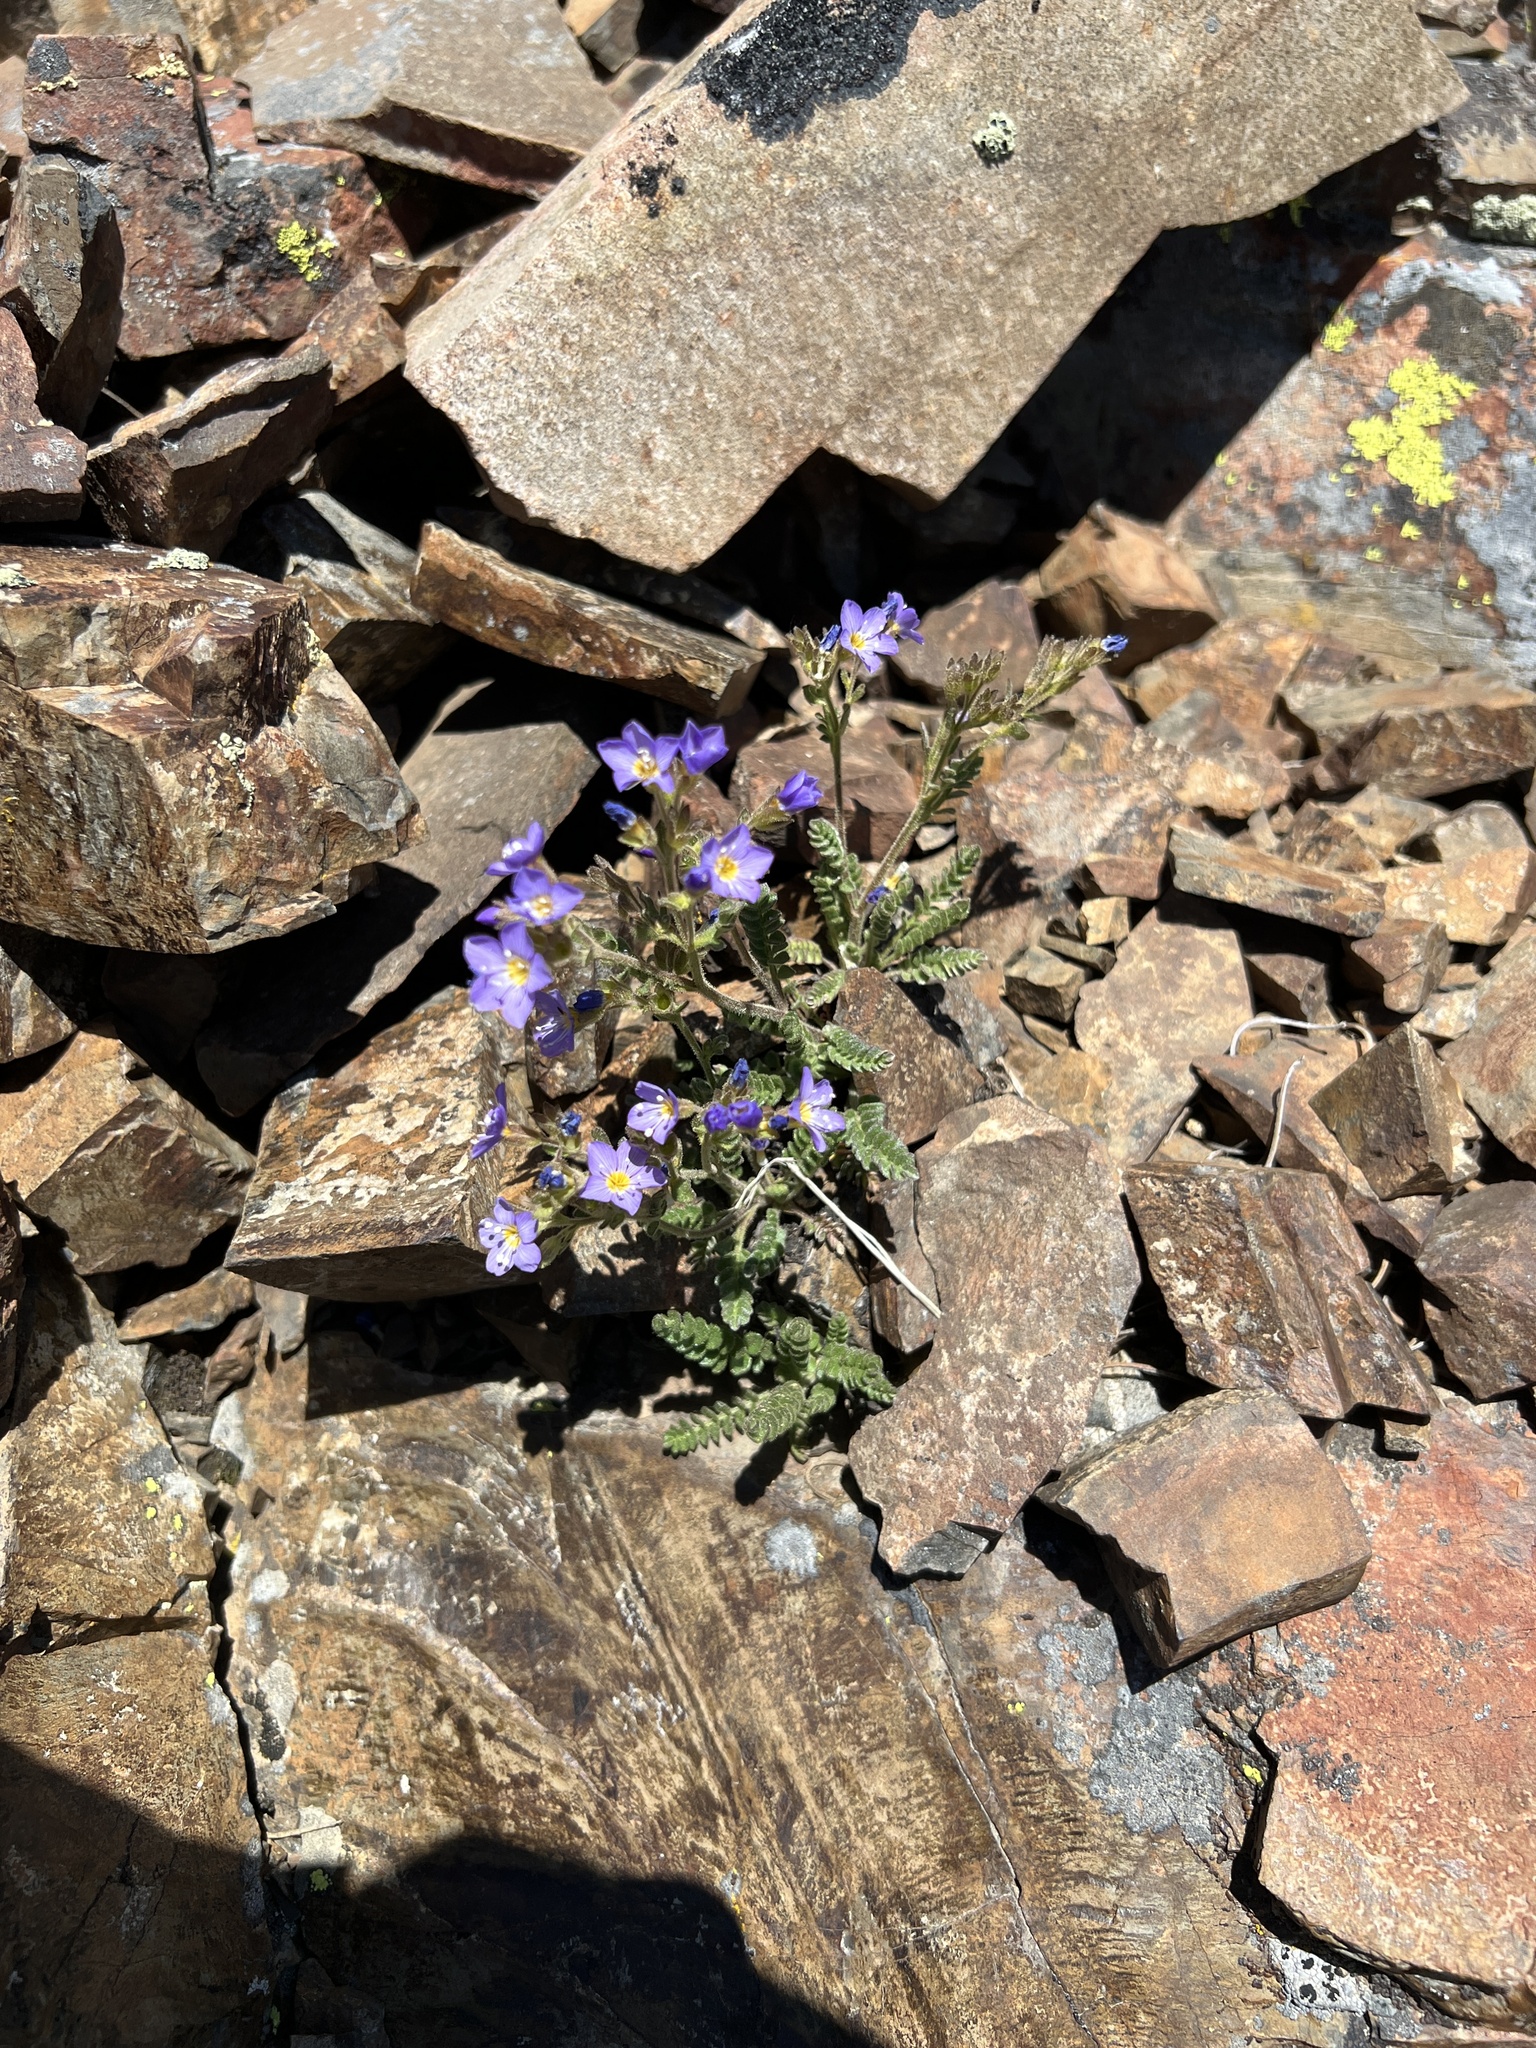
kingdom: Plantae
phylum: Tracheophyta
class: Magnoliopsida
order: Ericales
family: Polemoniaceae
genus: Polemonium
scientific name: Polemonium pulcherrimum
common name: Short jacob's-ladder
